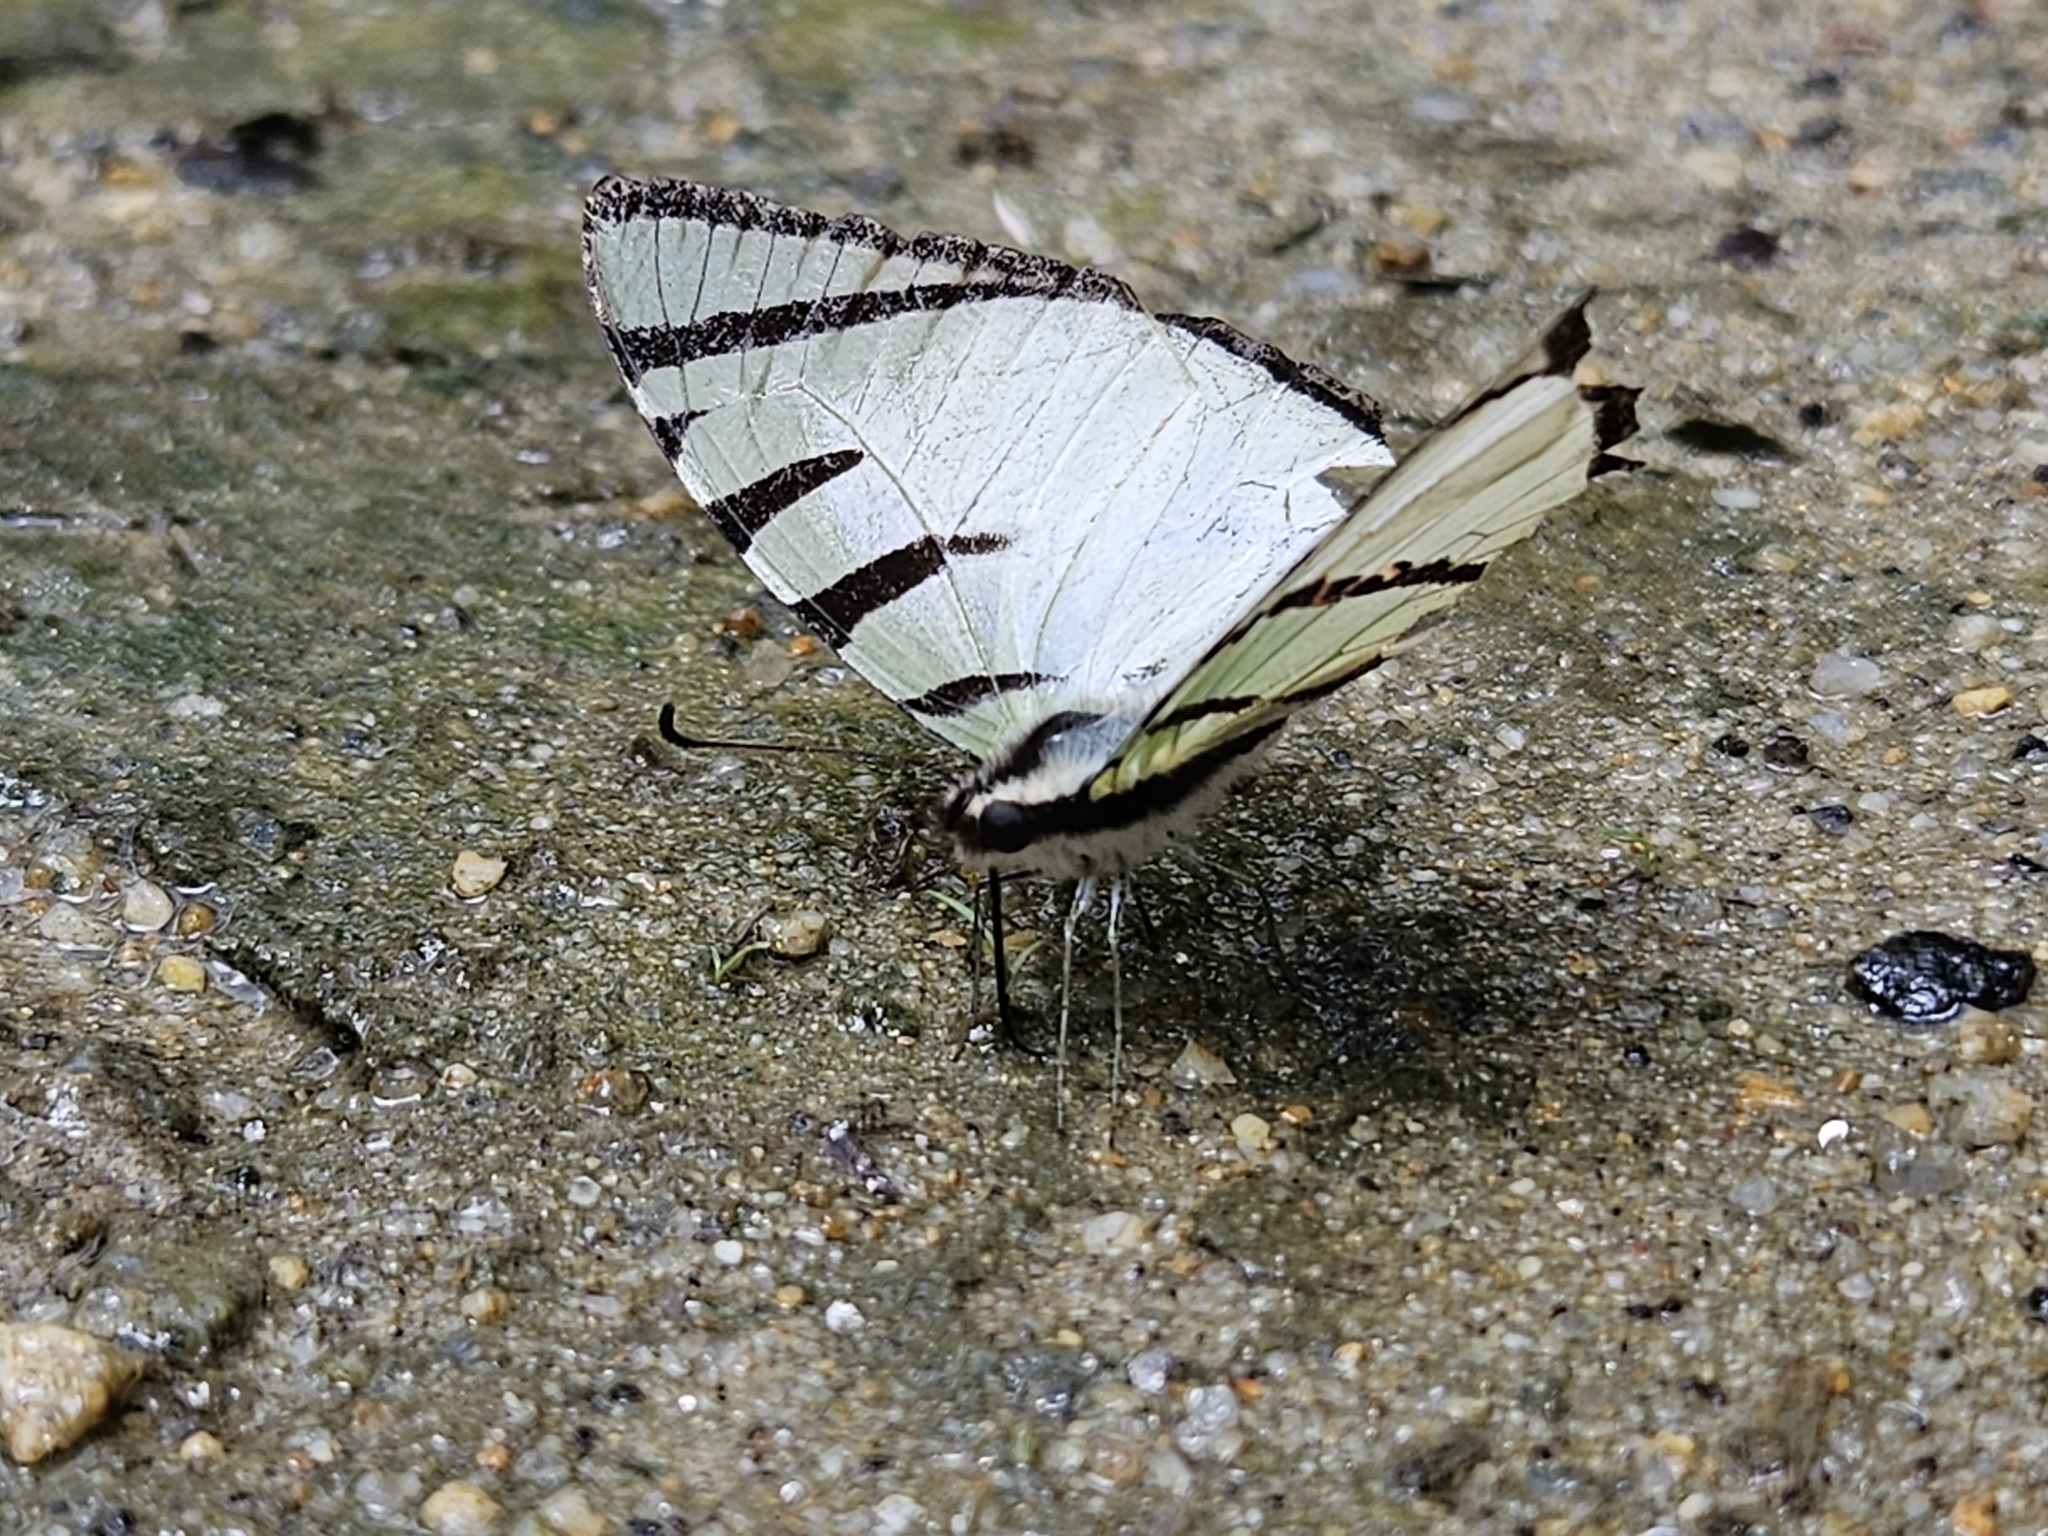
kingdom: Animalia
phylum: Arthropoda
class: Insecta
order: Lepidoptera
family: Papilionidae
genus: Graphium
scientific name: Graphium agetes
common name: Fourbar swordtail
